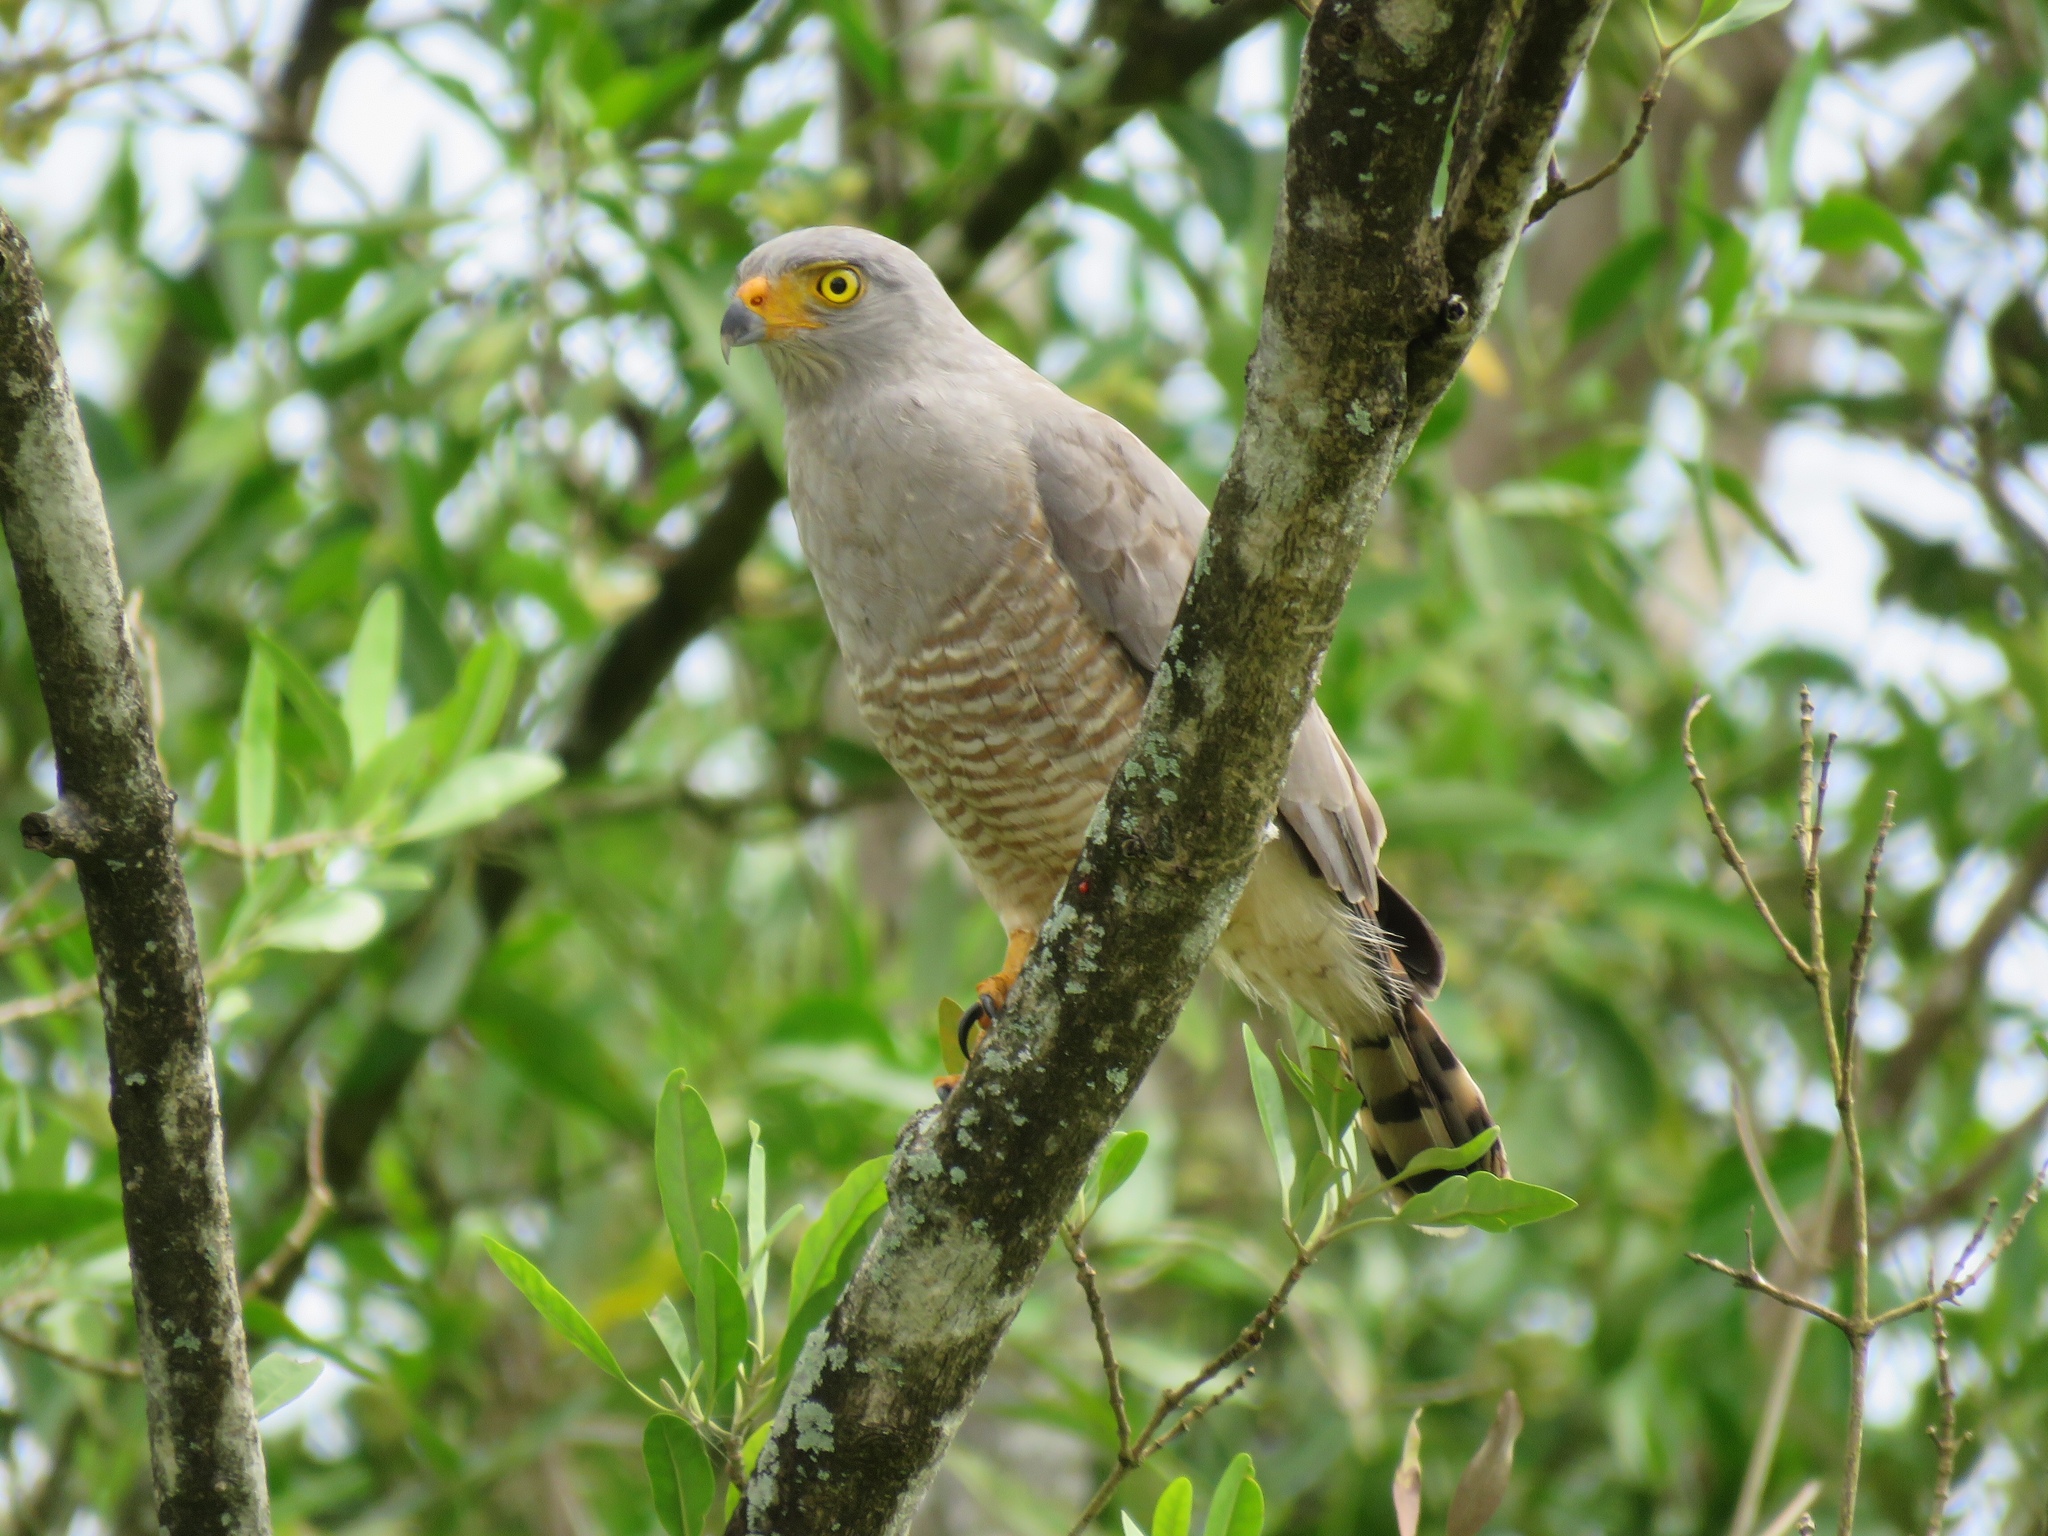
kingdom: Animalia
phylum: Chordata
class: Aves
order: Accipitriformes
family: Accipitridae
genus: Rupornis
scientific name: Rupornis magnirostris
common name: Roadside hawk
